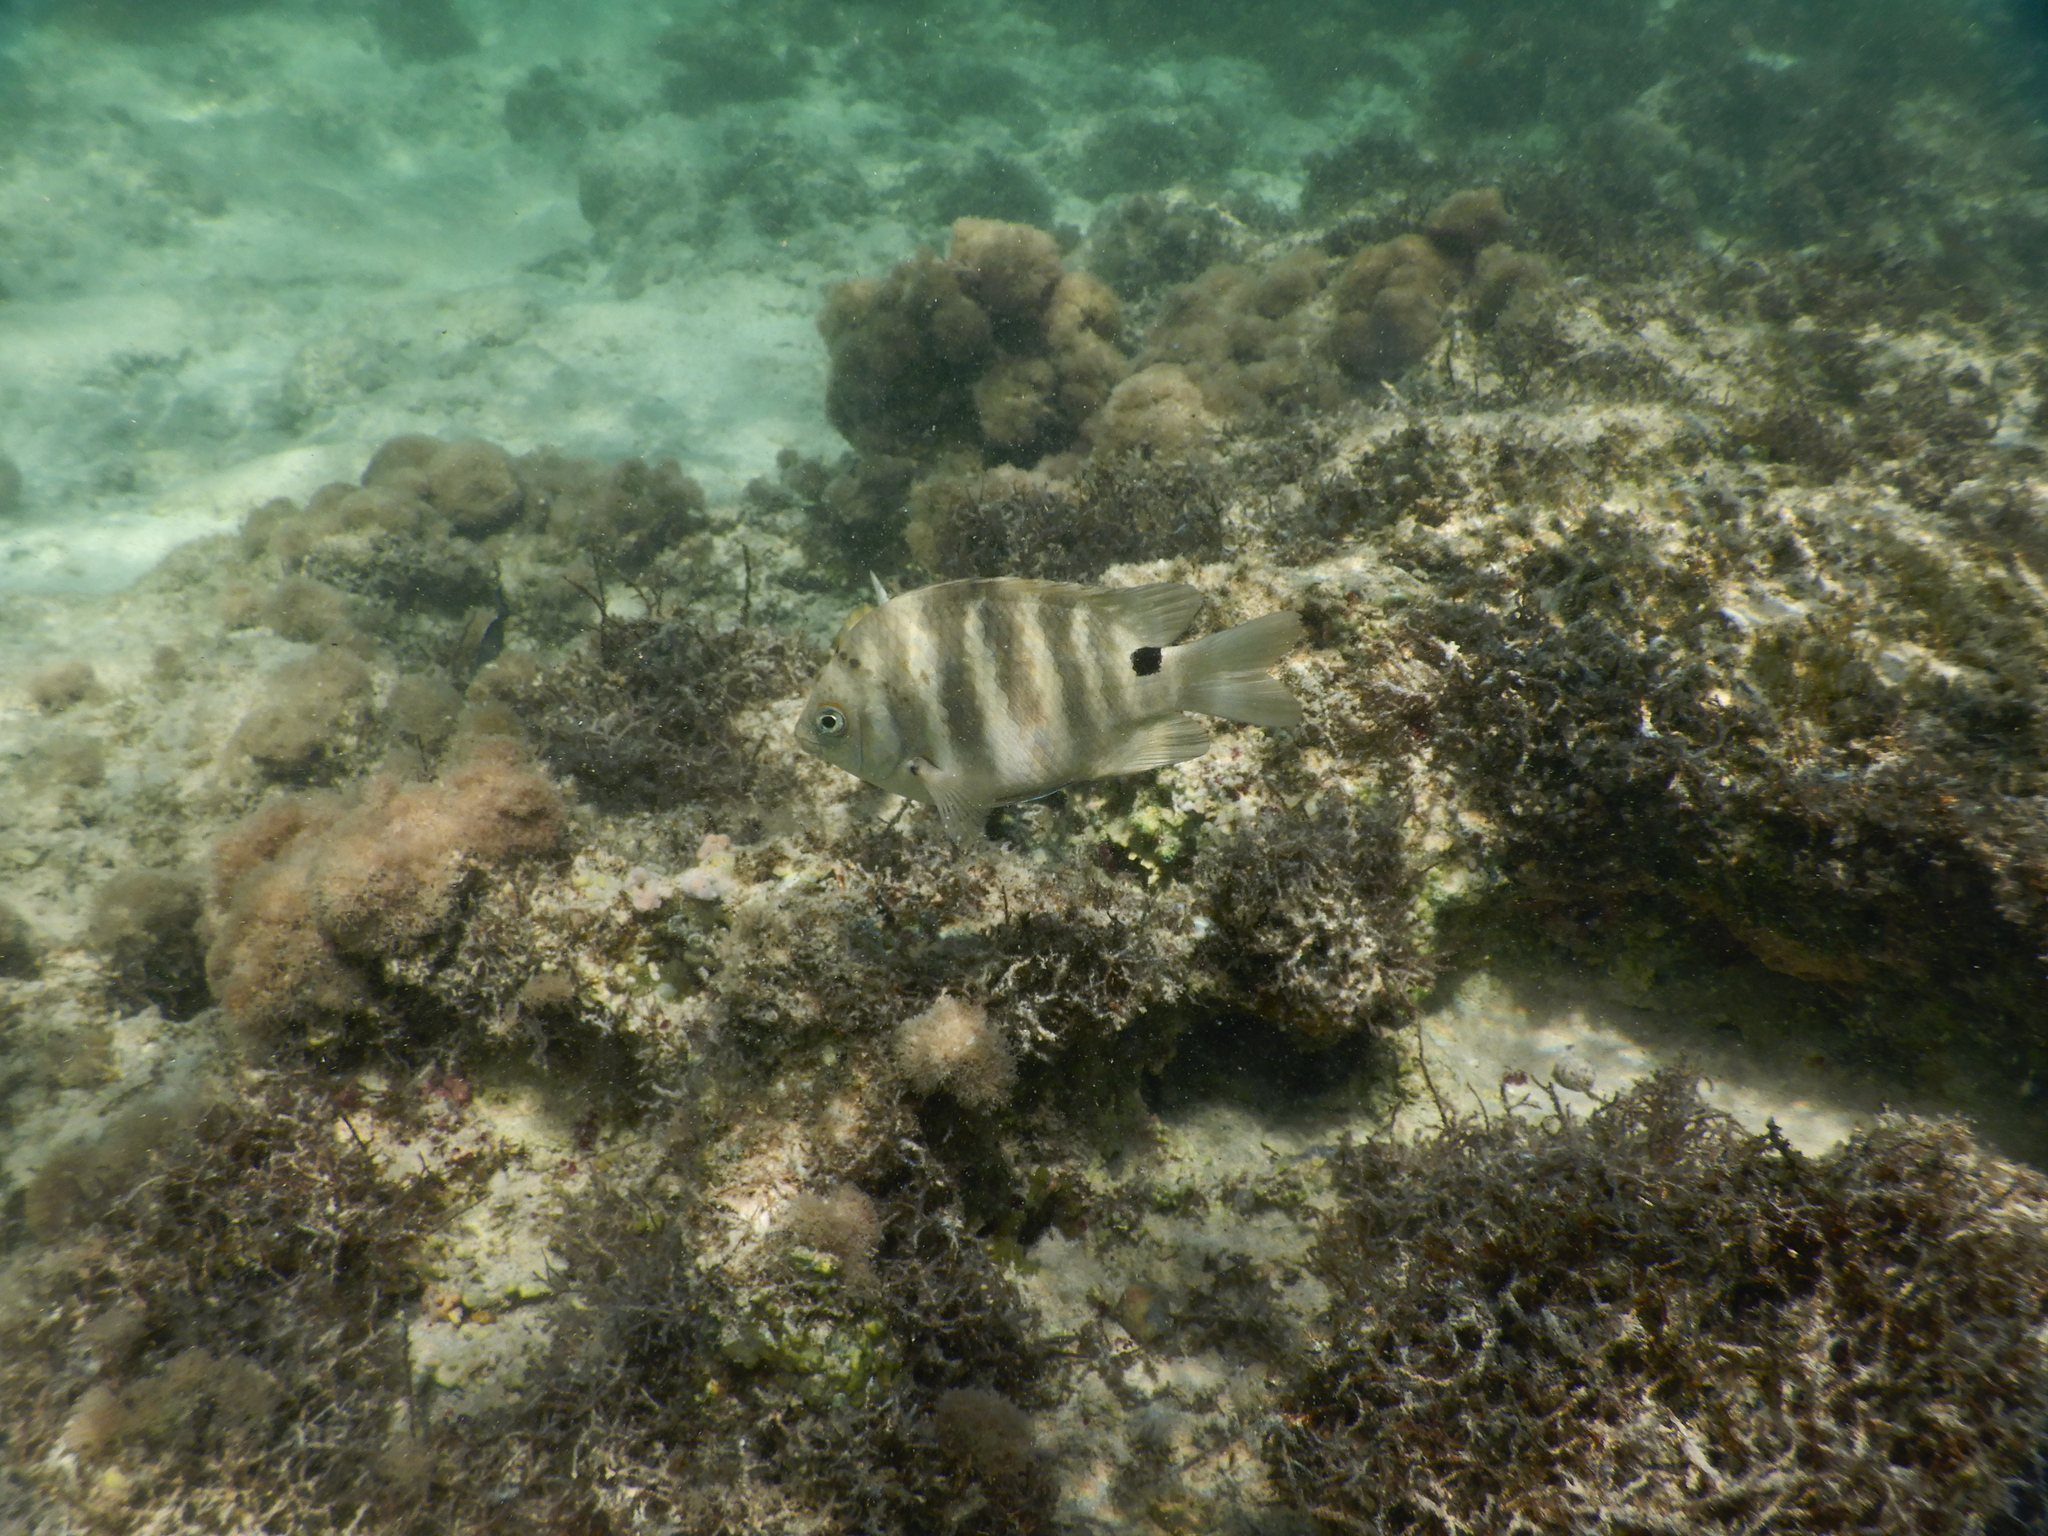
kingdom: Animalia
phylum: Chordata
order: Perciformes
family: Pomacentridae
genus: Abudefduf
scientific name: Abudefduf sordidus
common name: Blackspot sergeant
